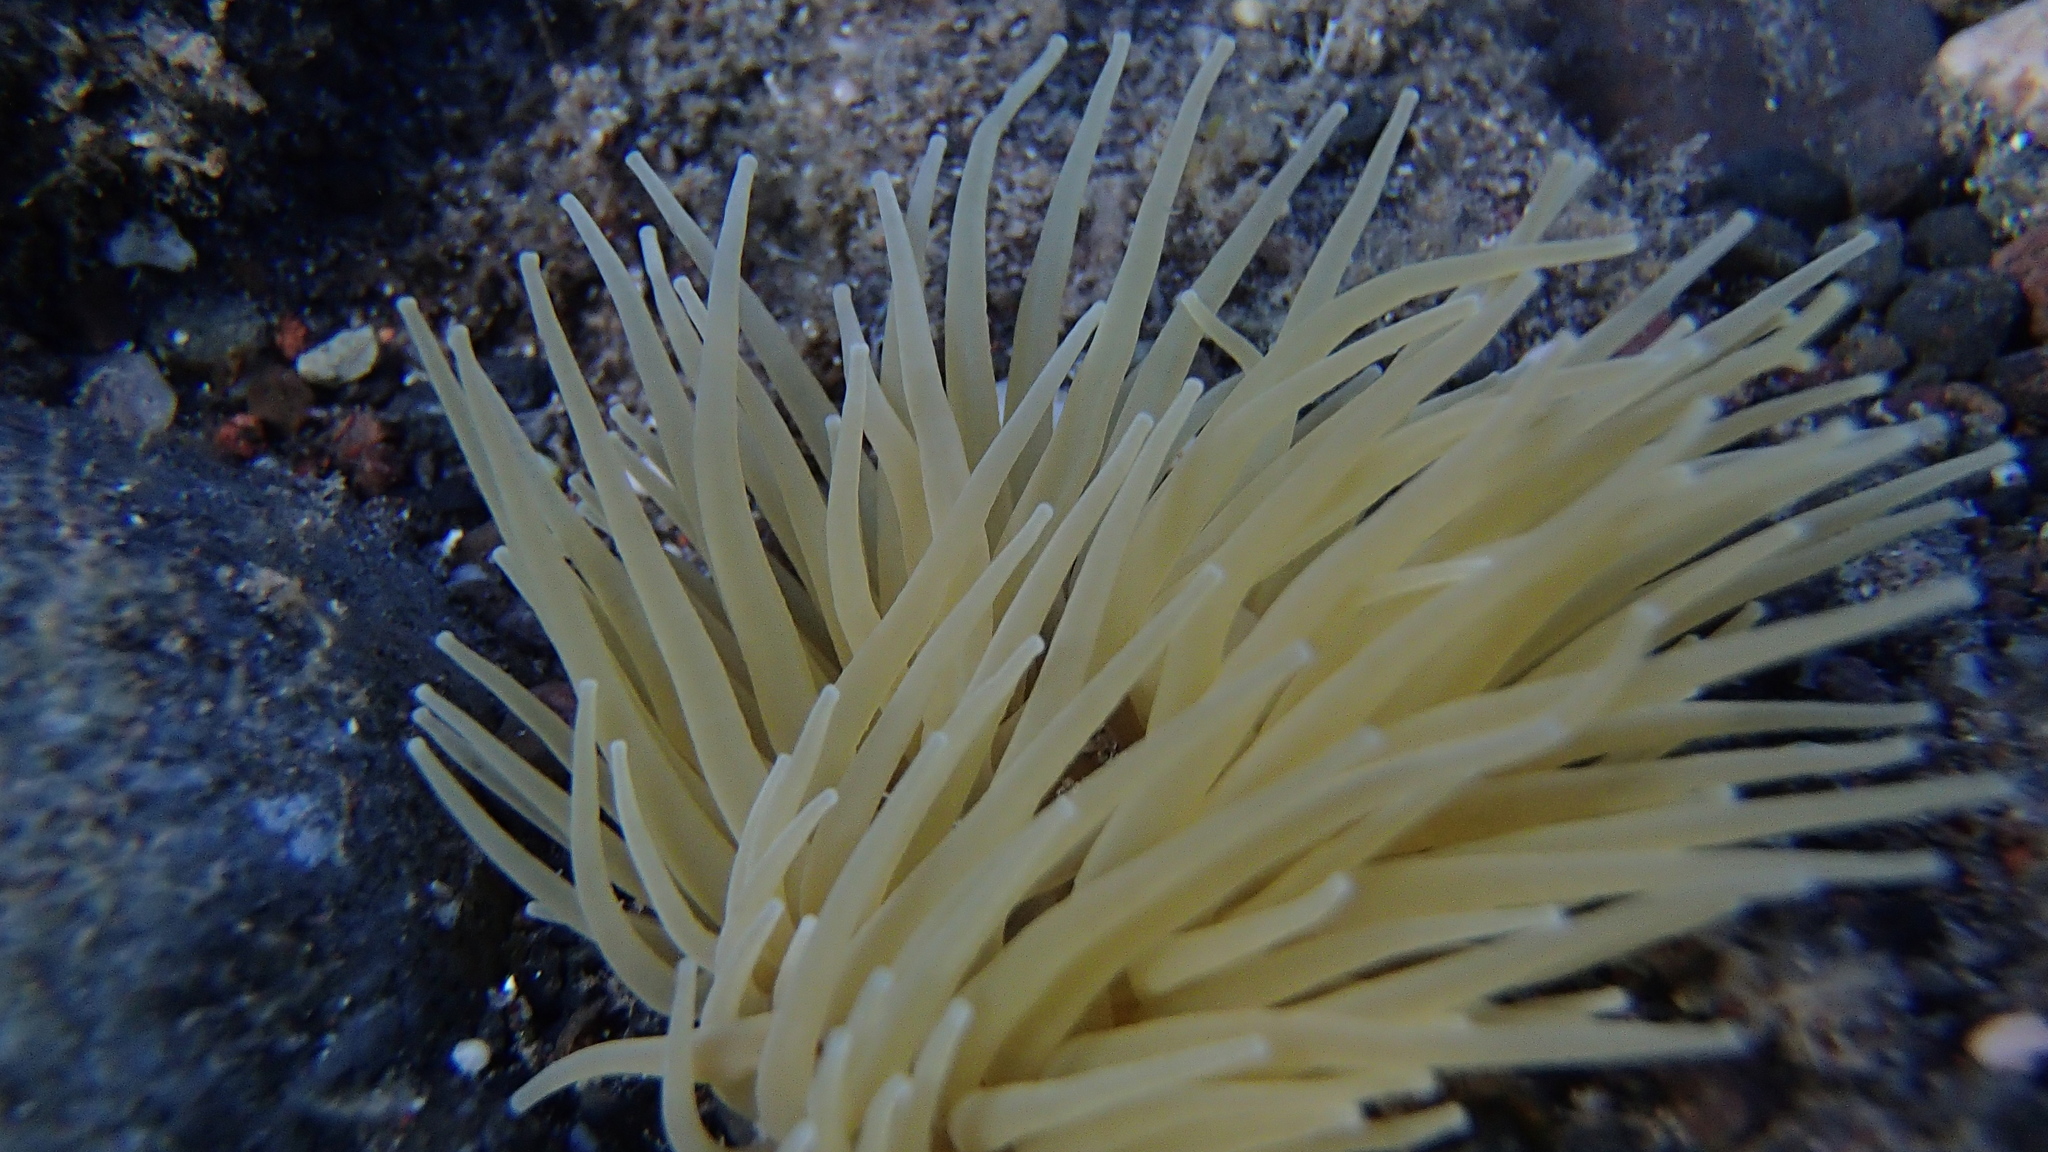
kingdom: Animalia
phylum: Cnidaria
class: Anthozoa
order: Actiniaria
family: Actiniidae
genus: Anemonia
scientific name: Anemonia viridis
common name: Snakelocks anemone
